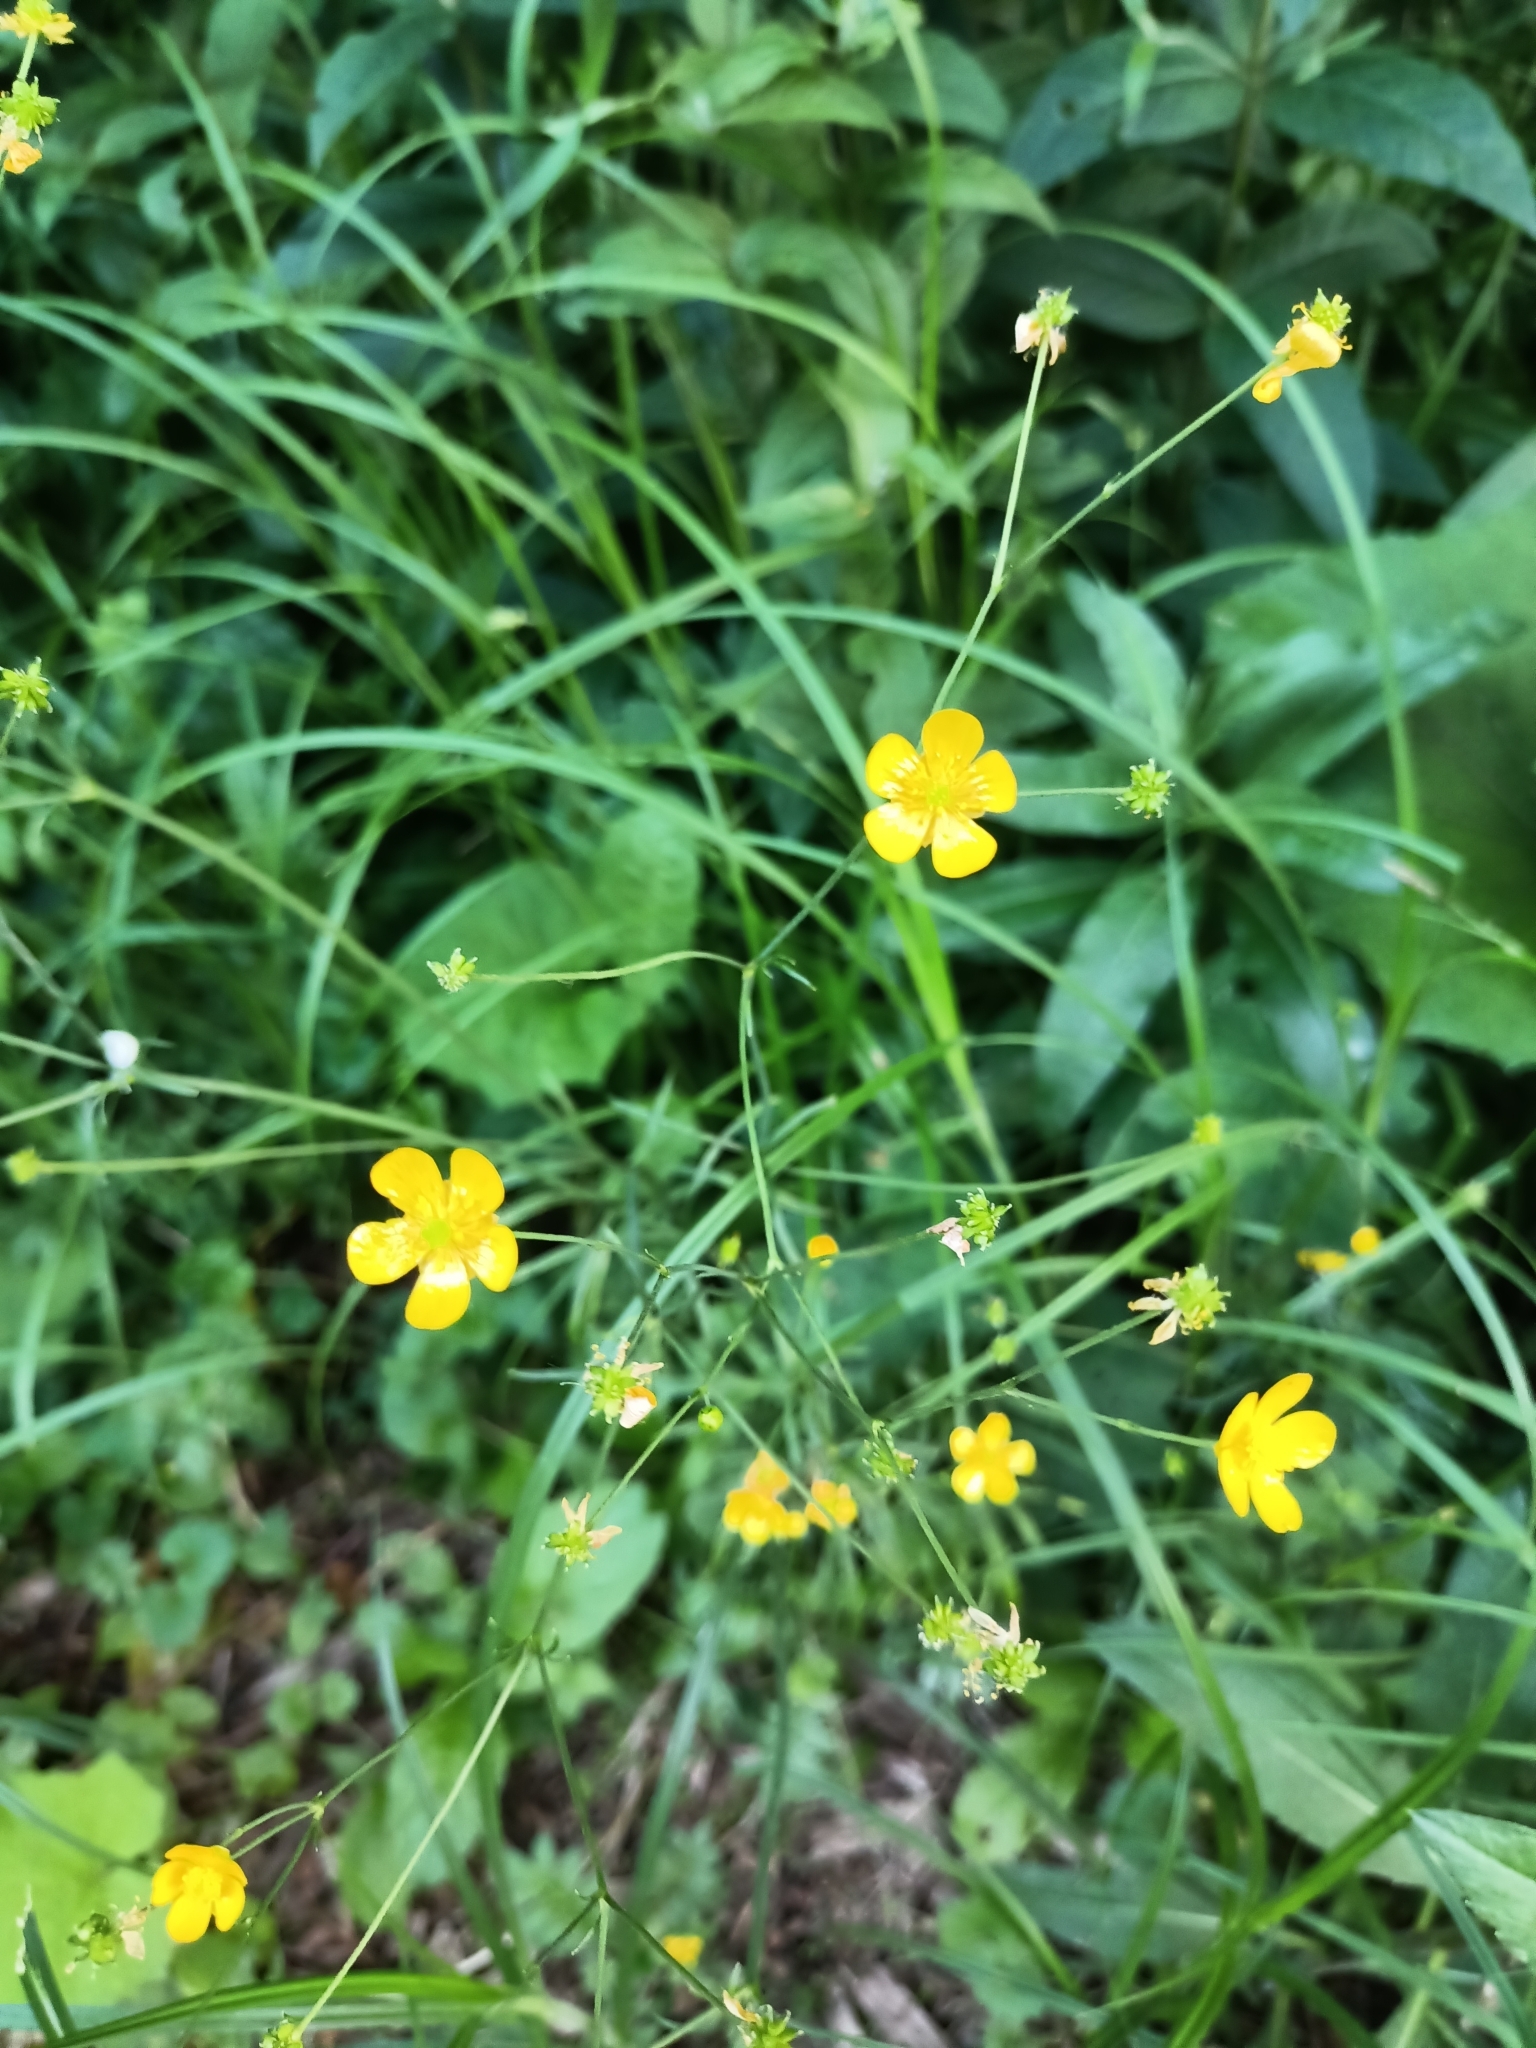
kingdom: Plantae
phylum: Tracheophyta
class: Magnoliopsida
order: Ranunculales
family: Ranunculaceae
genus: Ranunculus
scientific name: Ranunculus acris
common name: Meadow buttercup
